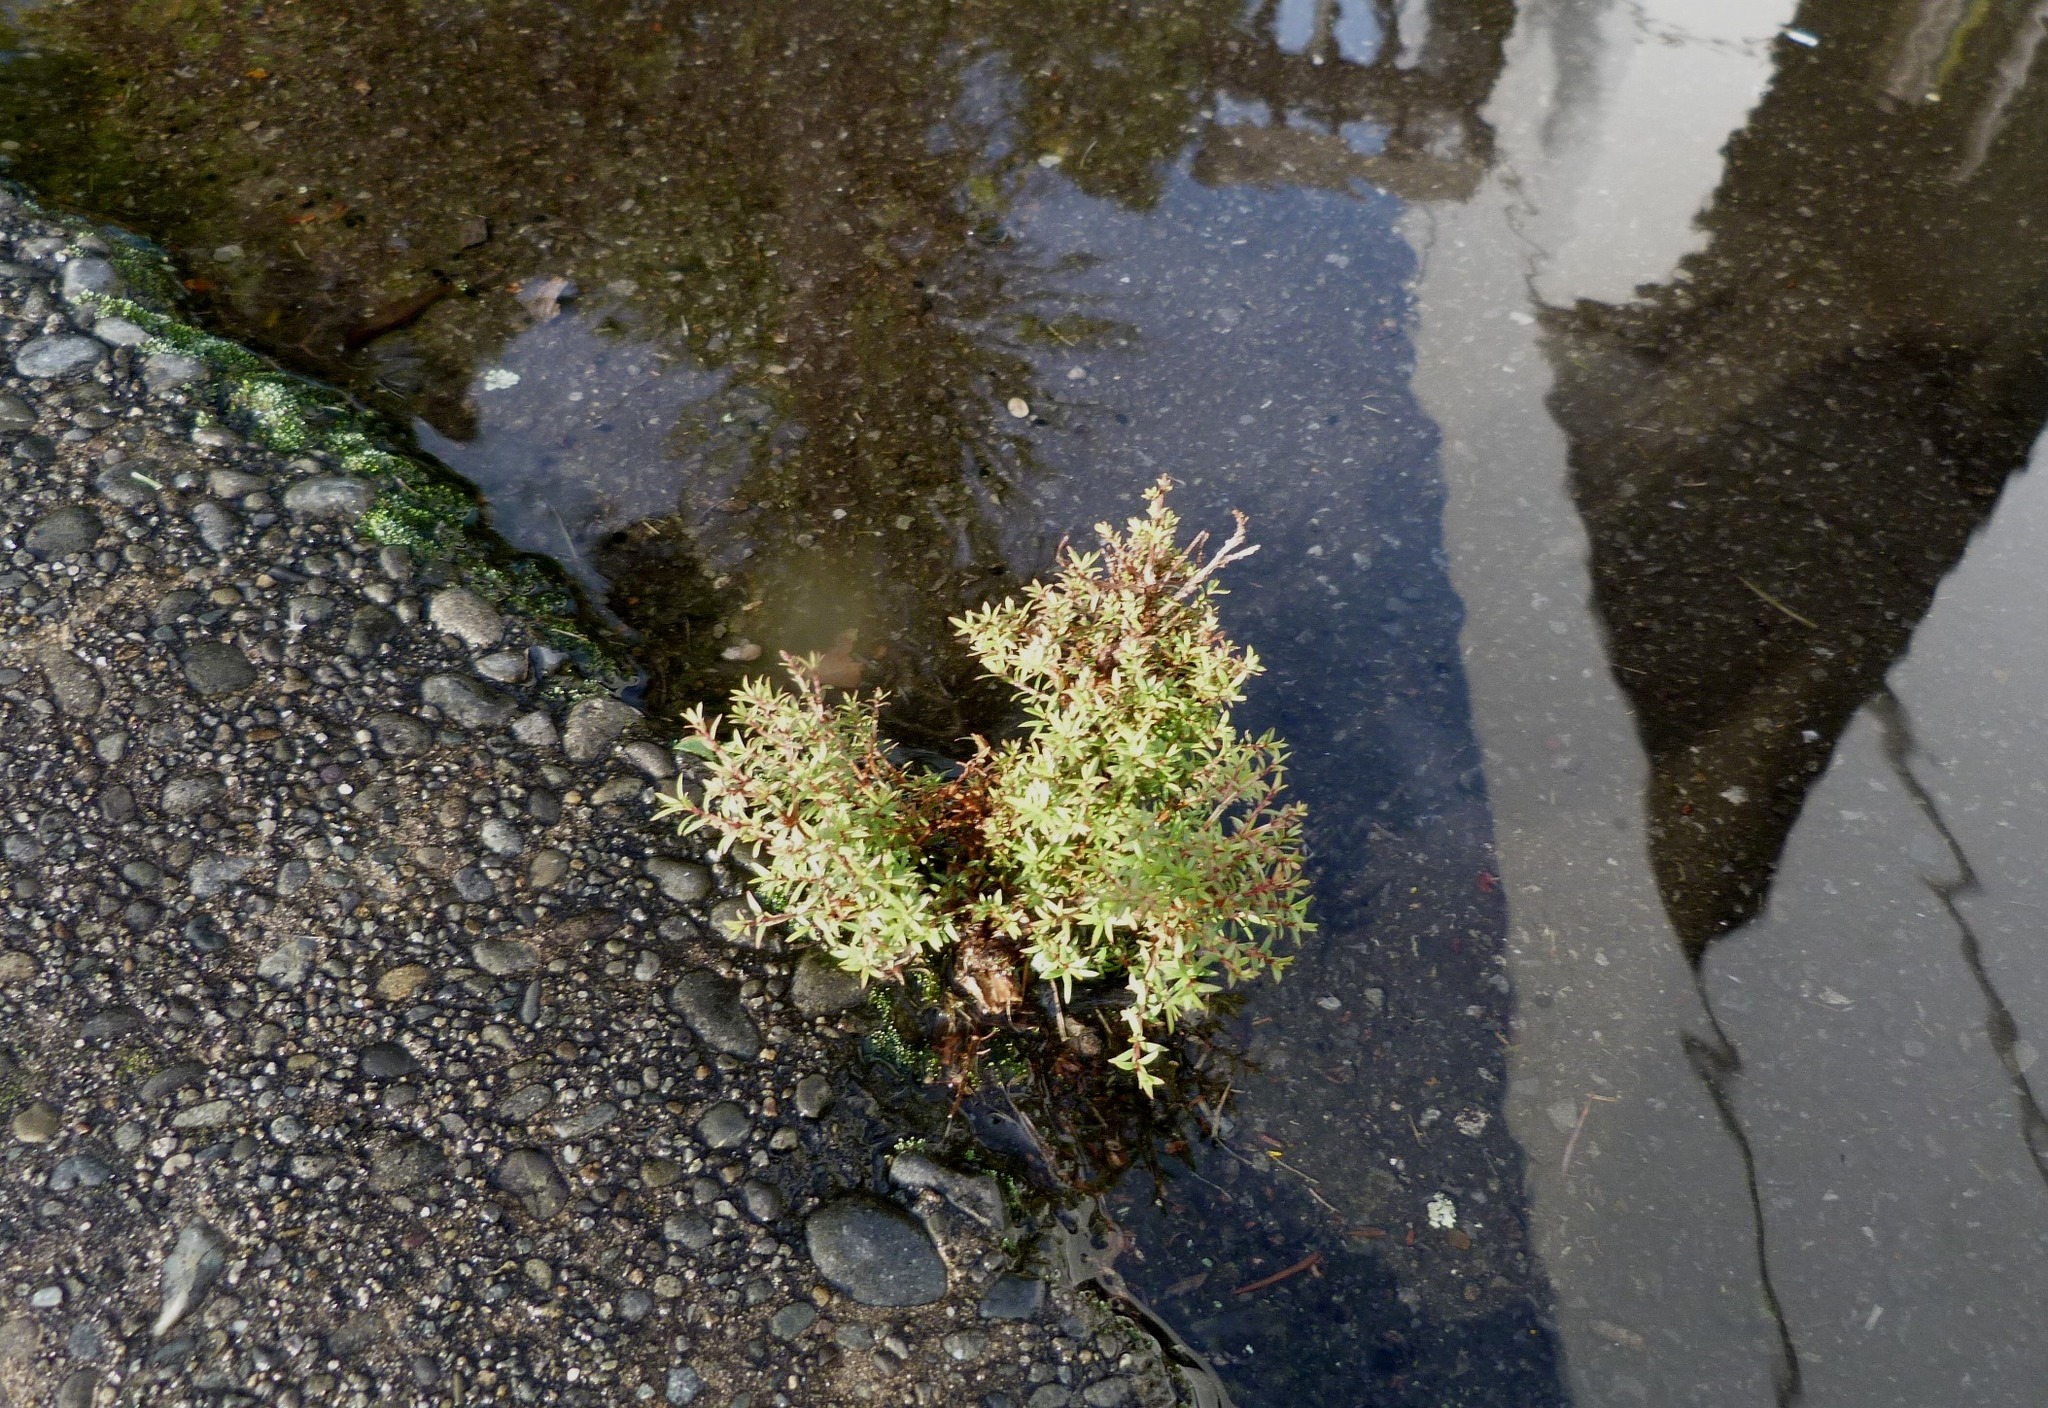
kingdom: Plantae
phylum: Tracheophyta
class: Magnoliopsida
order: Myrtales
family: Myrtaceae
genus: Kunzea
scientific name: Kunzea robusta
